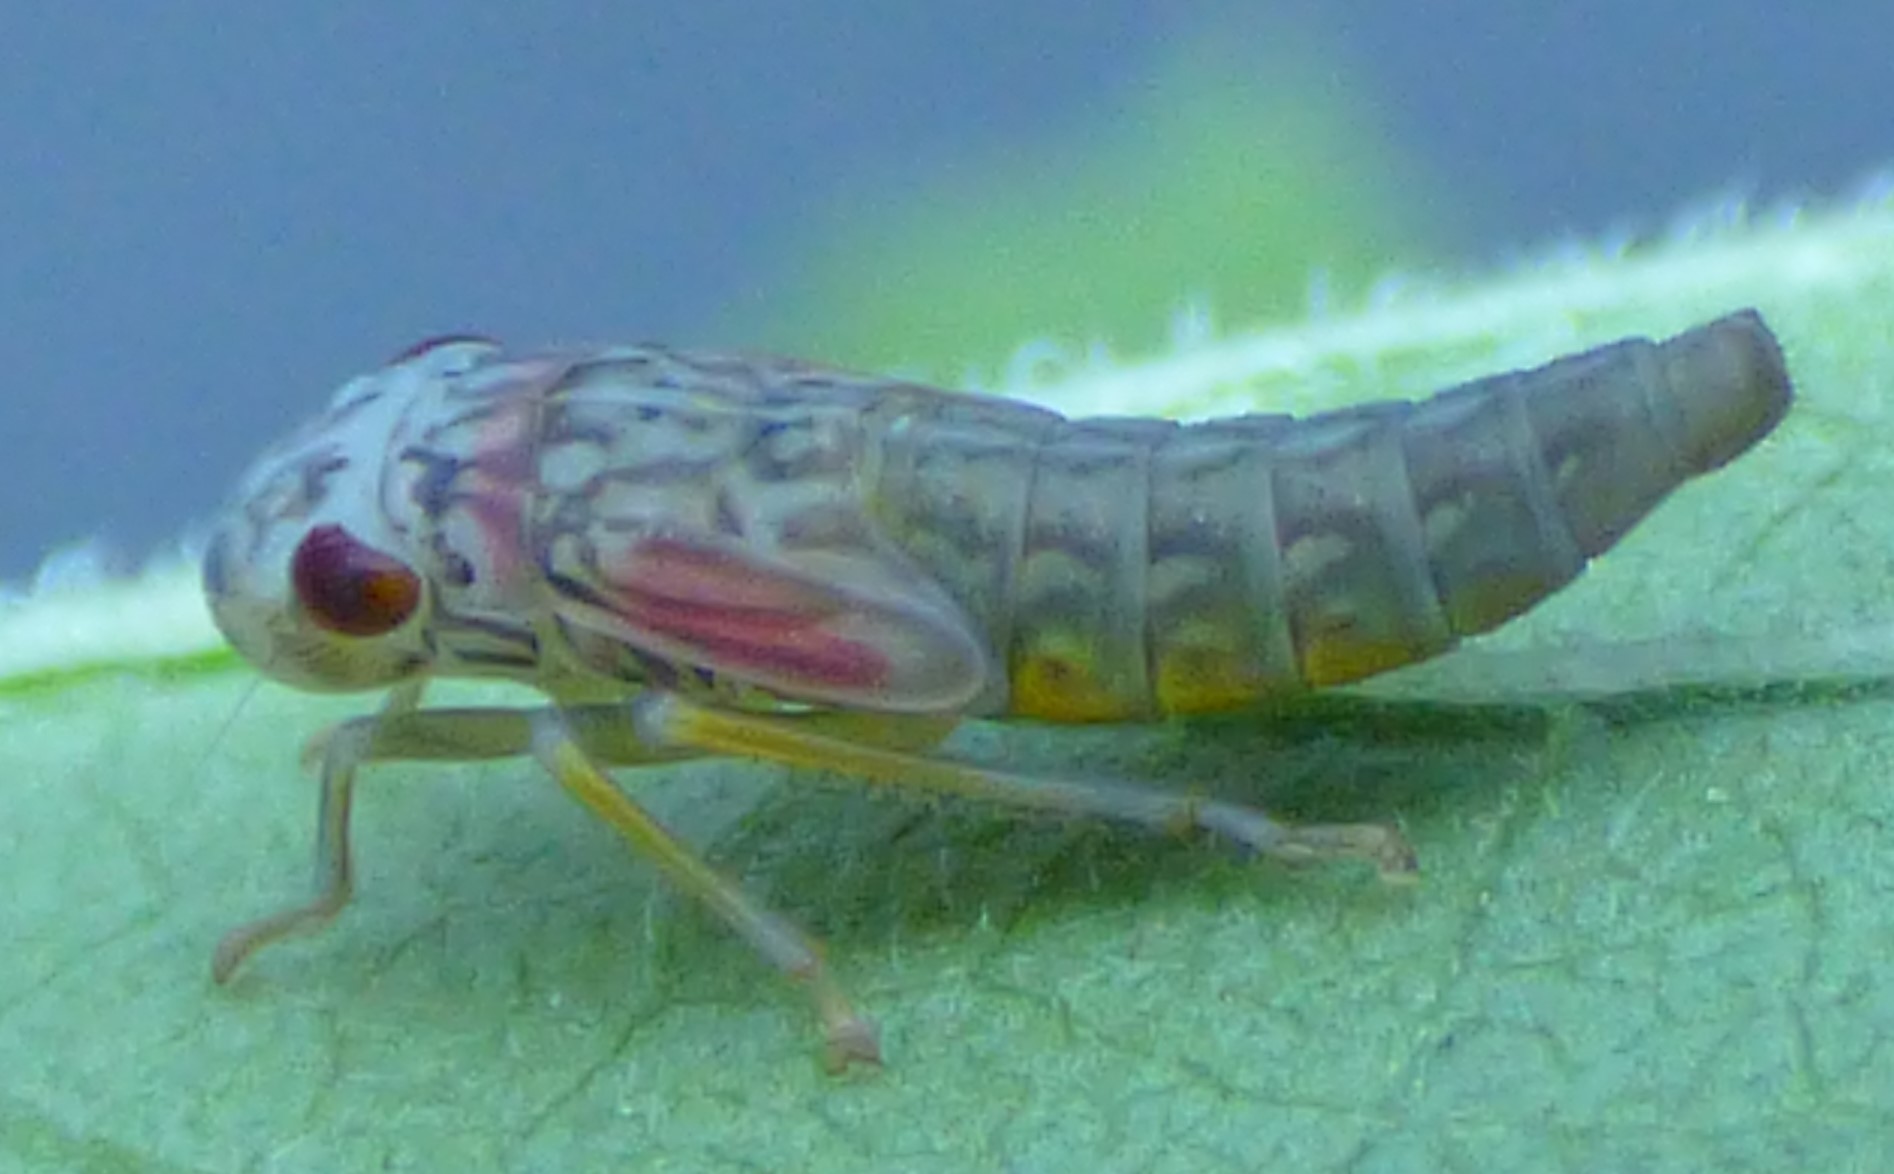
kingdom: Animalia
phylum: Arthropoda
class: Insecta
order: Hemiptera
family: Cicadellidae
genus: Oncometopia
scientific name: Oncometopia orbona
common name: Broad-headed sharpshooter
